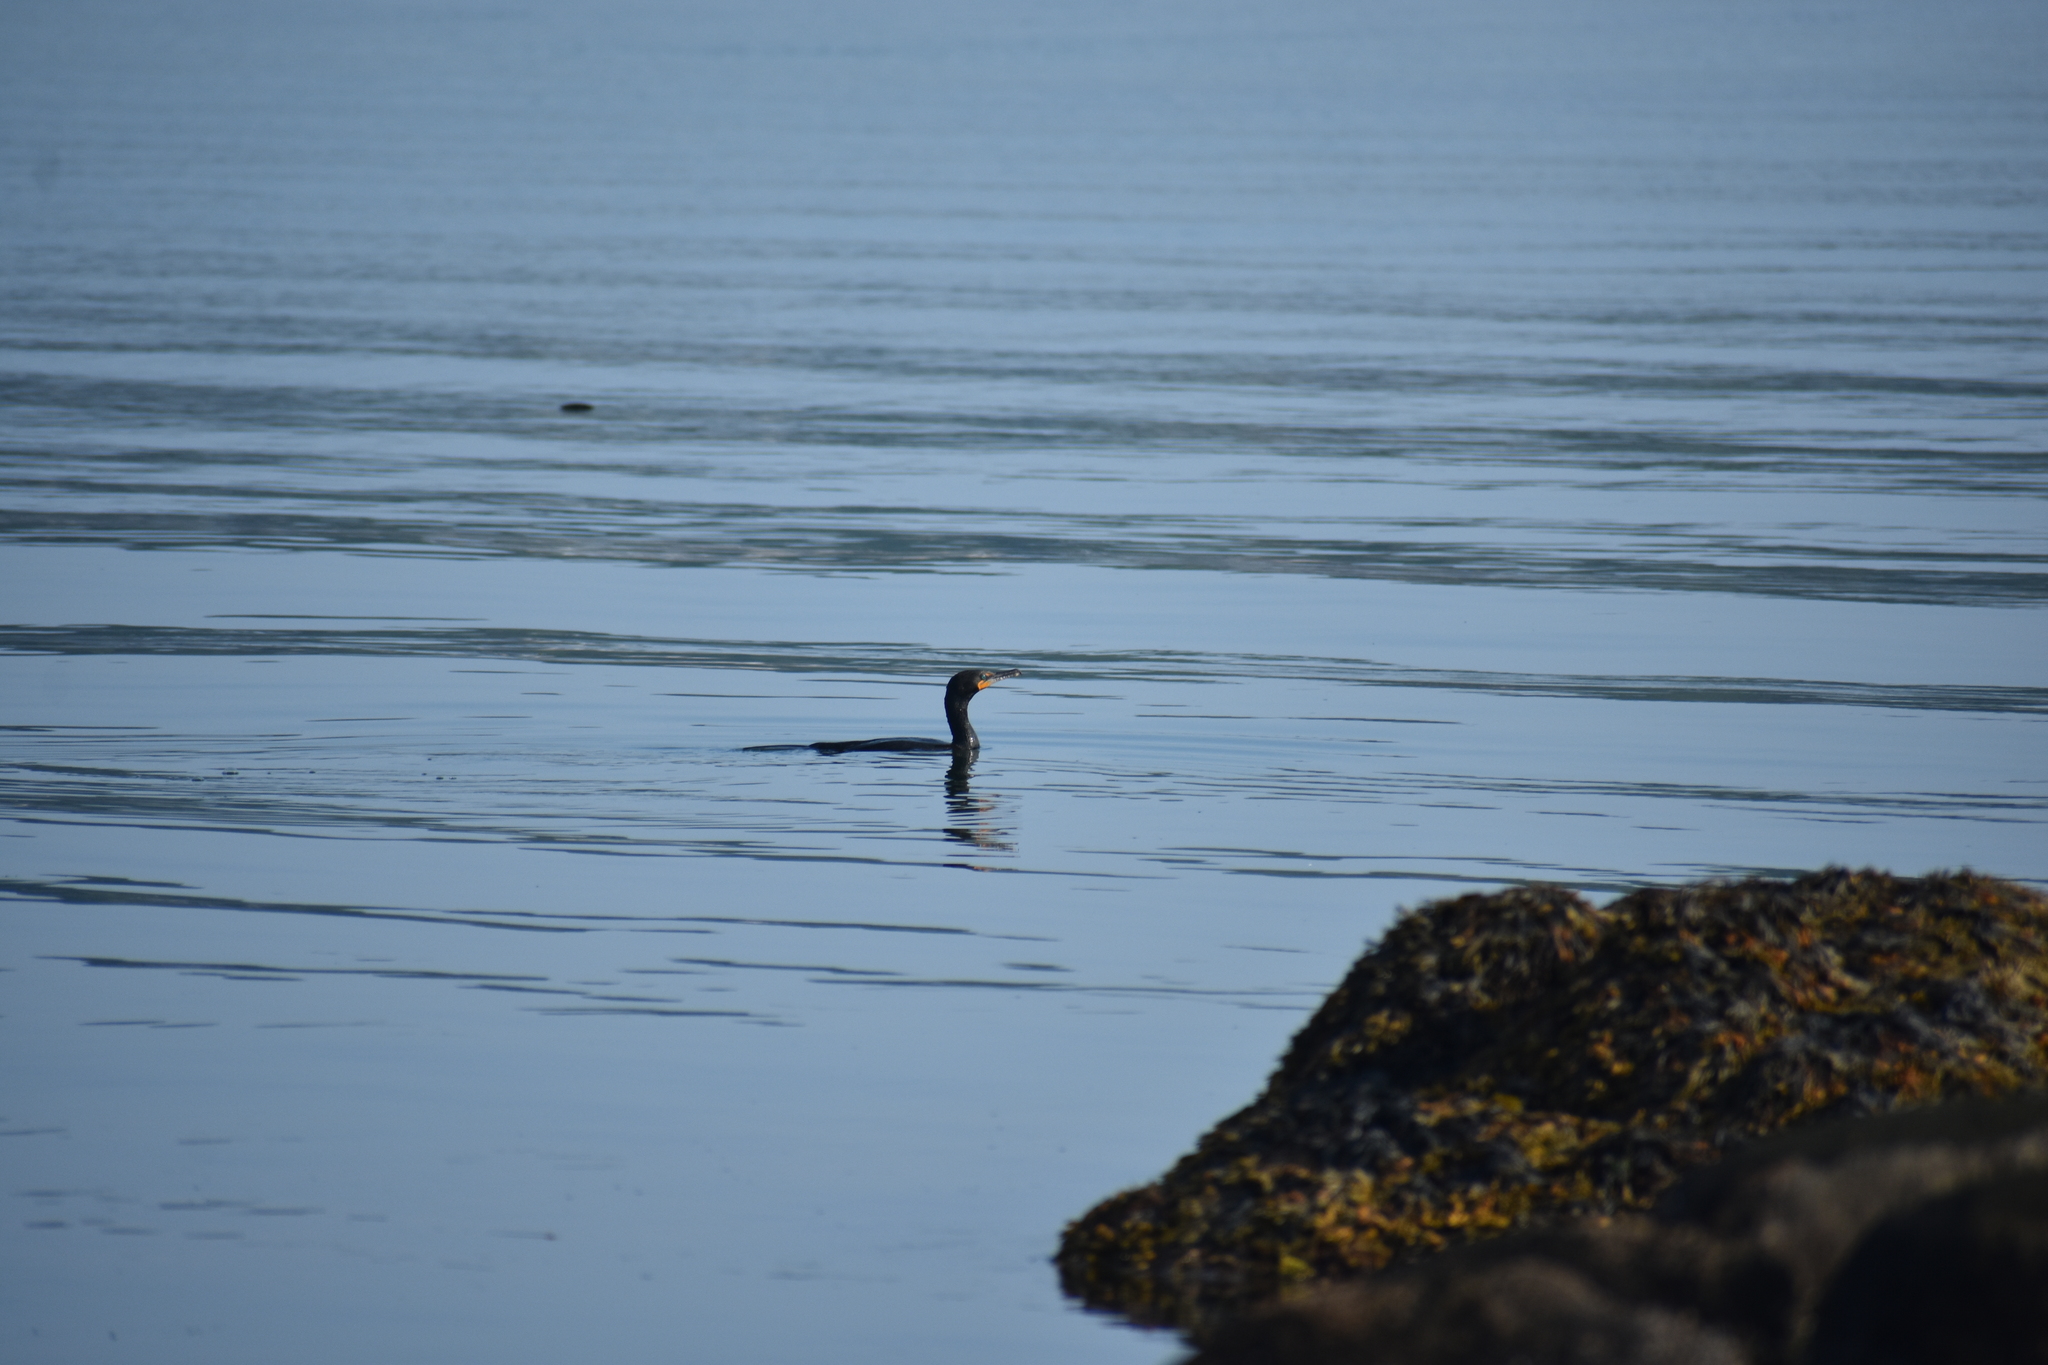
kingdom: Animalia
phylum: Chordata
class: Aves
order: Suliformes
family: Phalacrocoracidae
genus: Phalacrocorax
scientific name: Phalacrocorax auritus
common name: Double-crested cormorant
